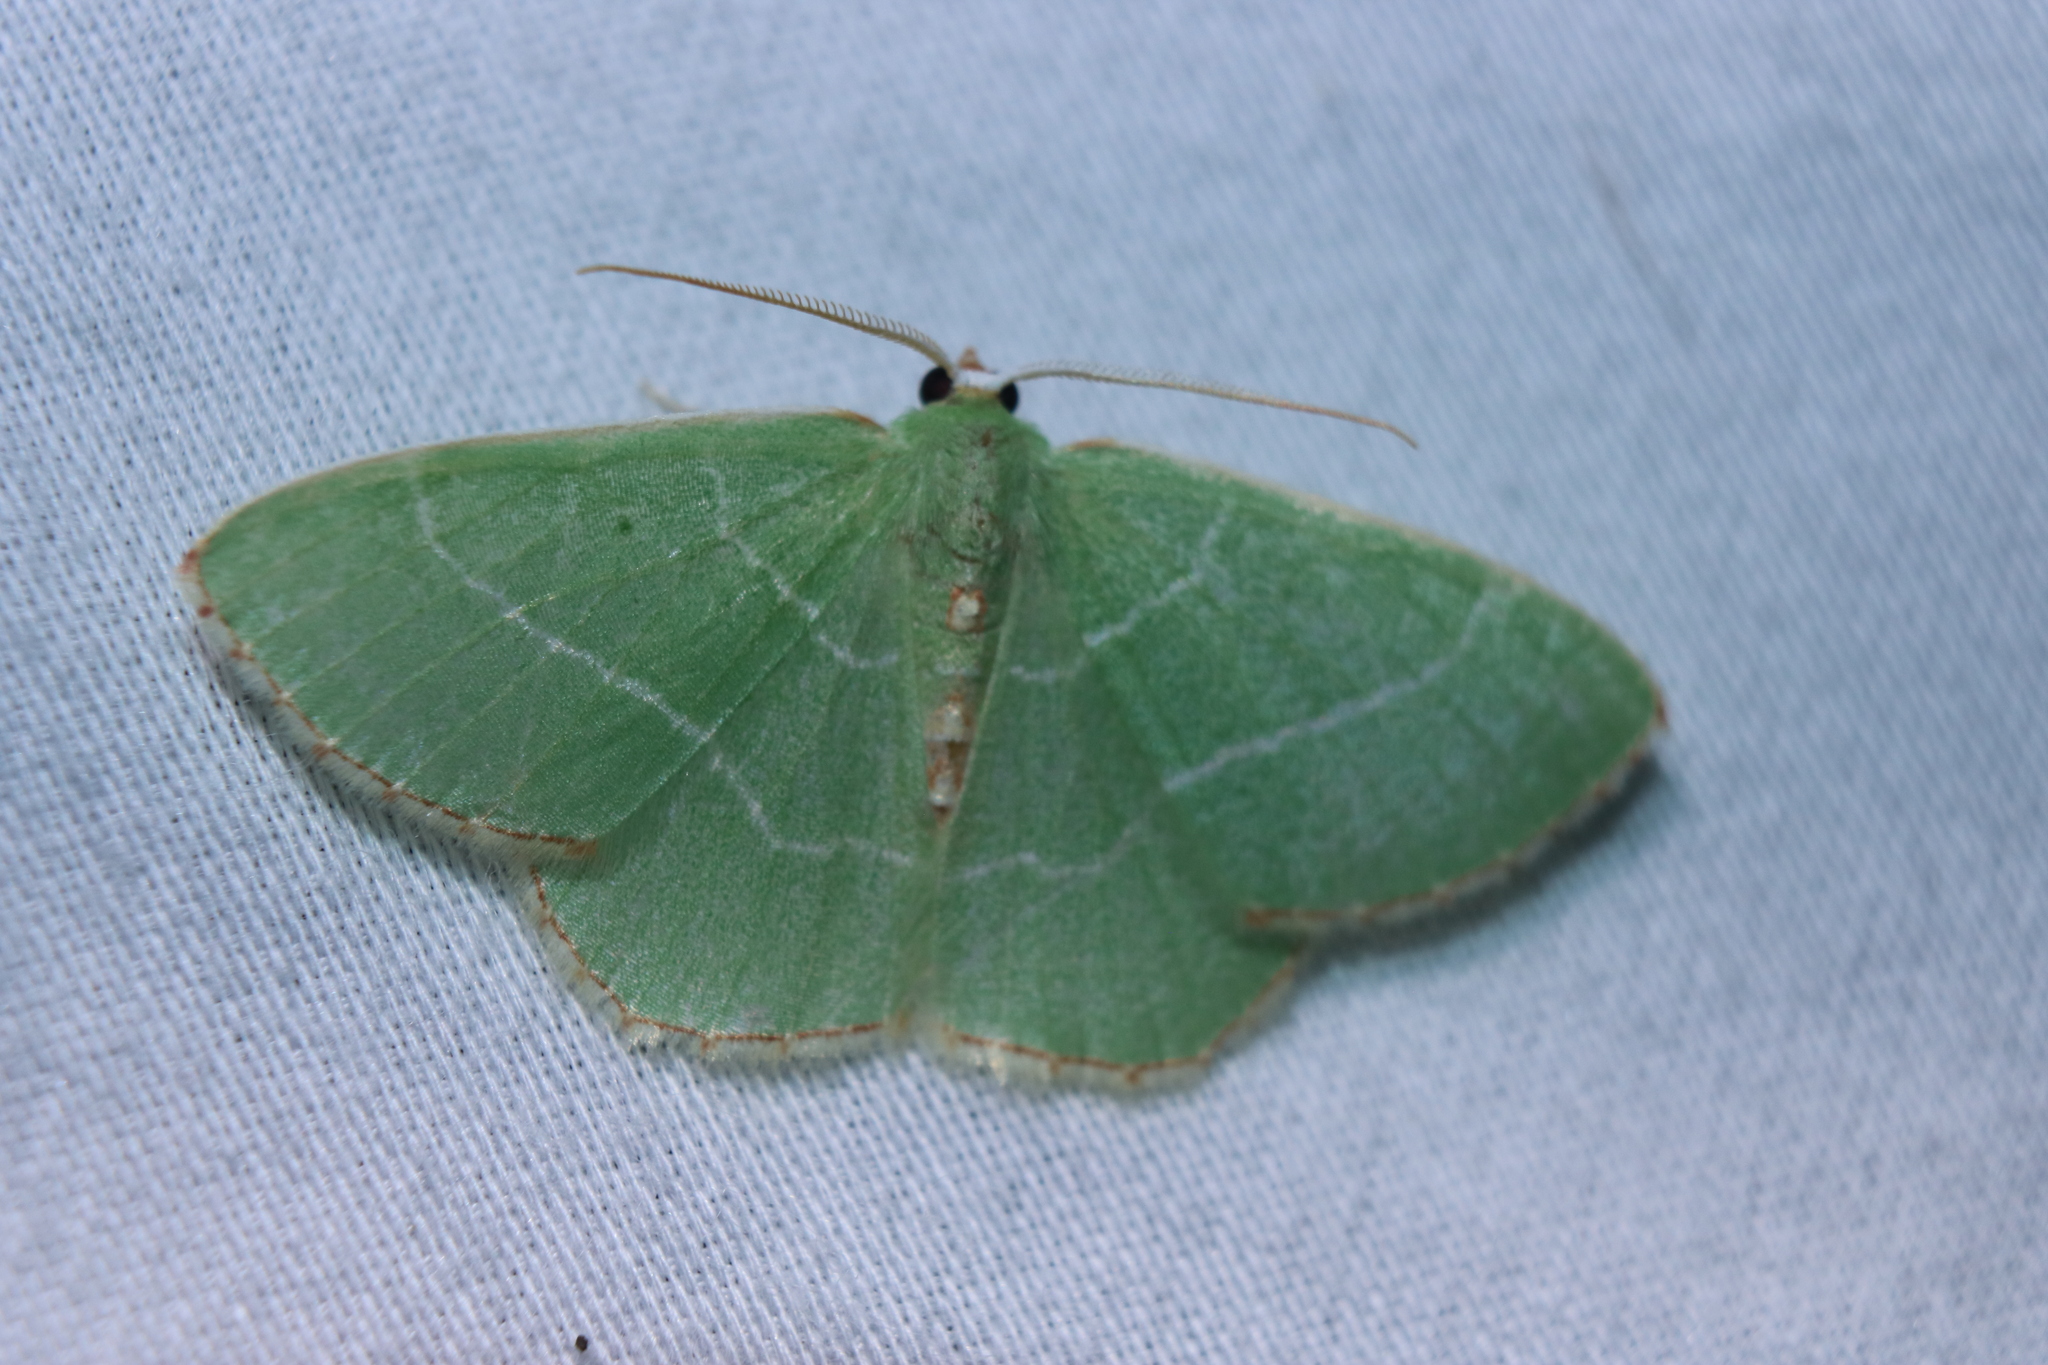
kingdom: Animalia
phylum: Arthropoda
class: Insecta
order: Lepidoptera
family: Geometridae
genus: Nemoria
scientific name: Nemoria bistriaria
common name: Red-fringed emerald
